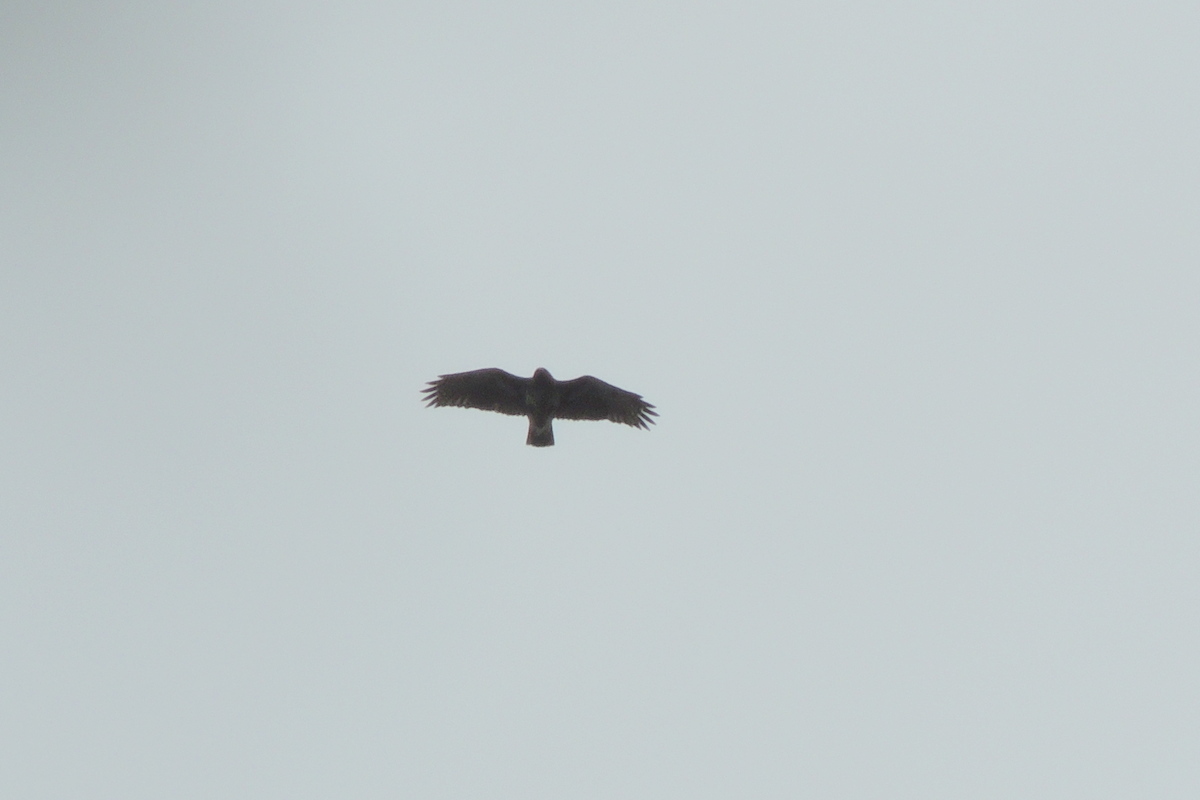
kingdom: Animalia
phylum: Chordata
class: Aves
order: Accipitriformes
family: Accipitridae
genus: Buteo
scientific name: Buteo brachypterus
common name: Madagascar buzzard
